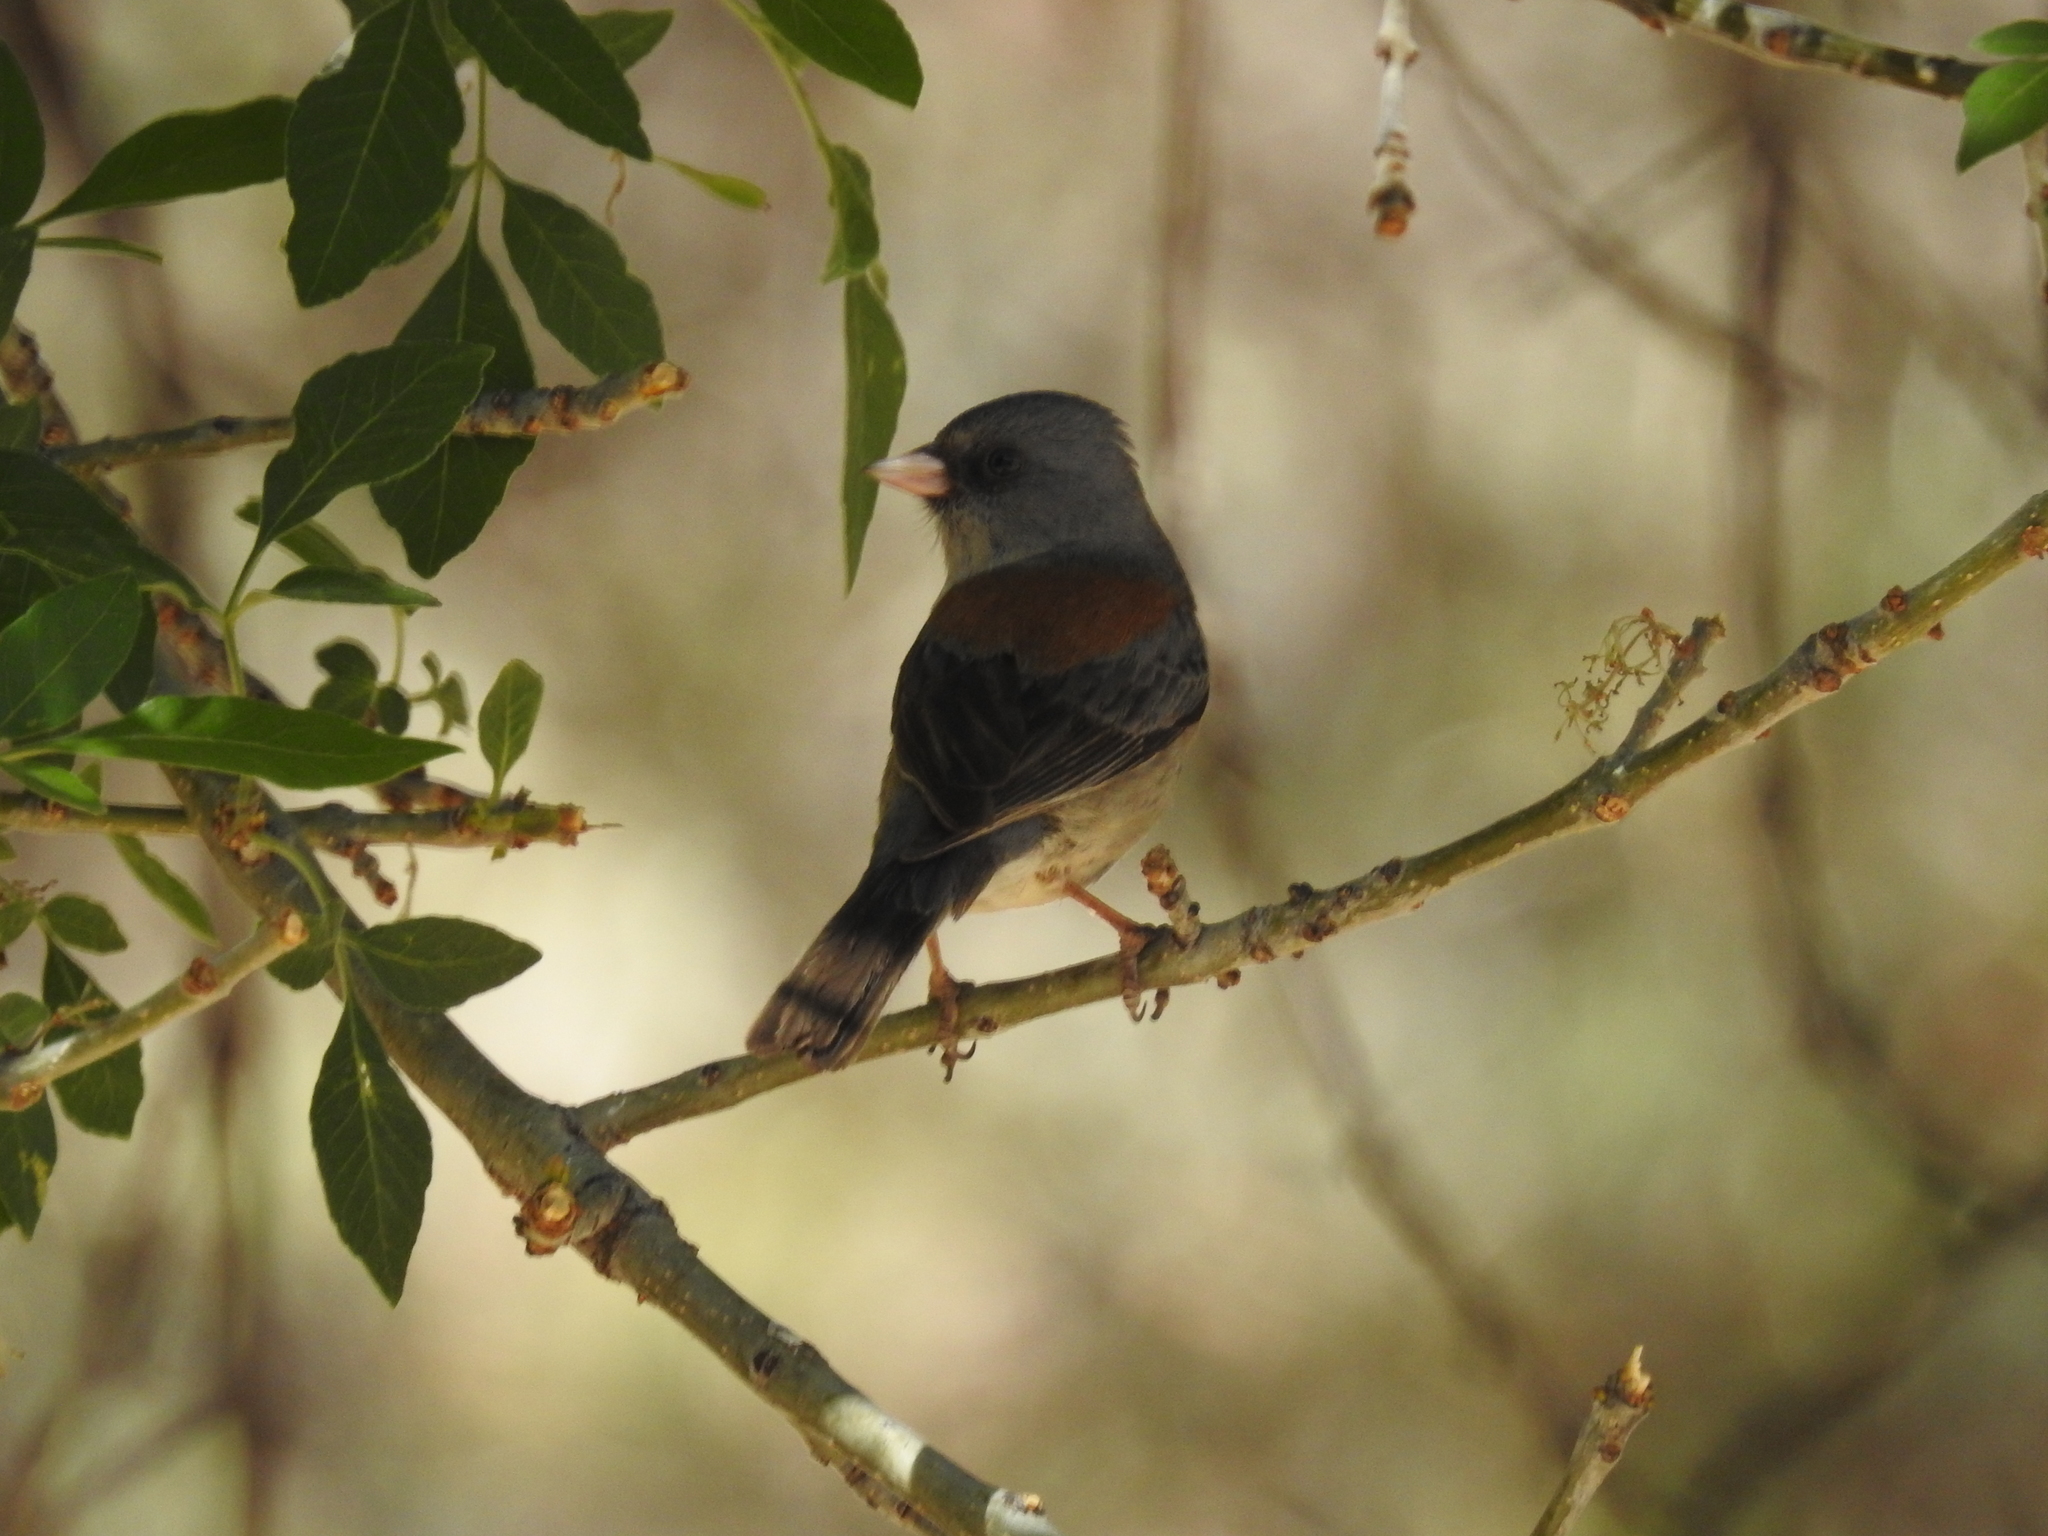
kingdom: Animalia
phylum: Chordata
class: Aves
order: Passeriformes
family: Passerellidae
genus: Junco
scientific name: Junco hyemalis
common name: Dark-eyed junco
